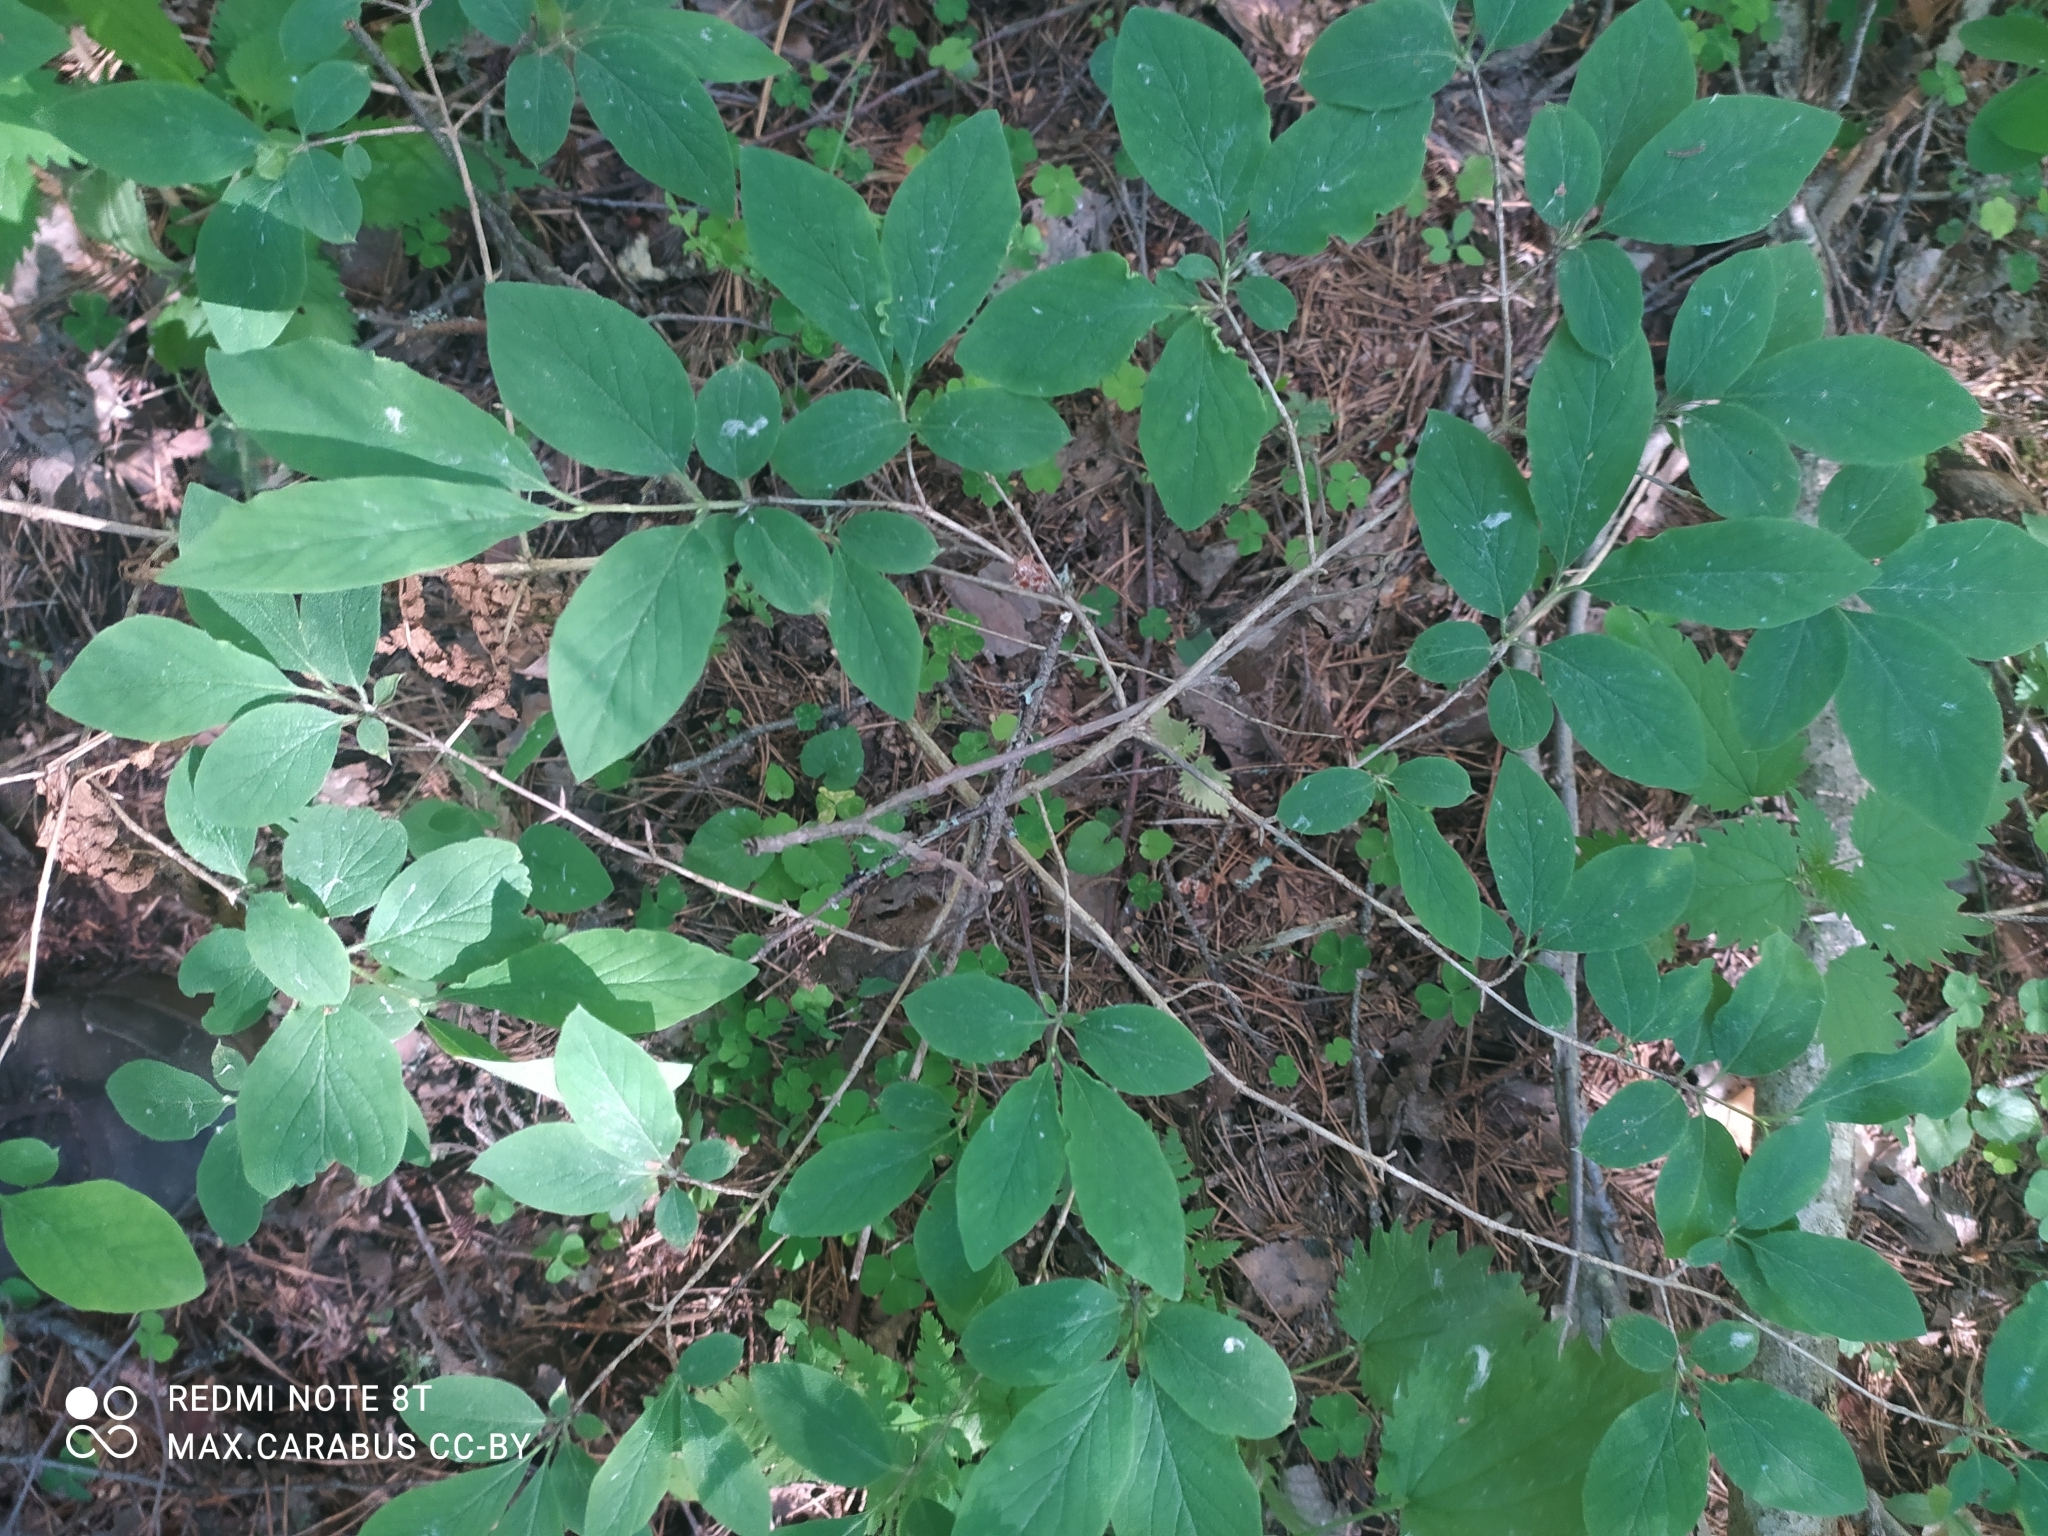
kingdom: Plantae
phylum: Tracheophyta
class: Magnoliopsida
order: Dipsacales
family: Caprifoliaceae
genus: Lonicera
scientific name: Lonicera xylosteum
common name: Fly honeysuckle
